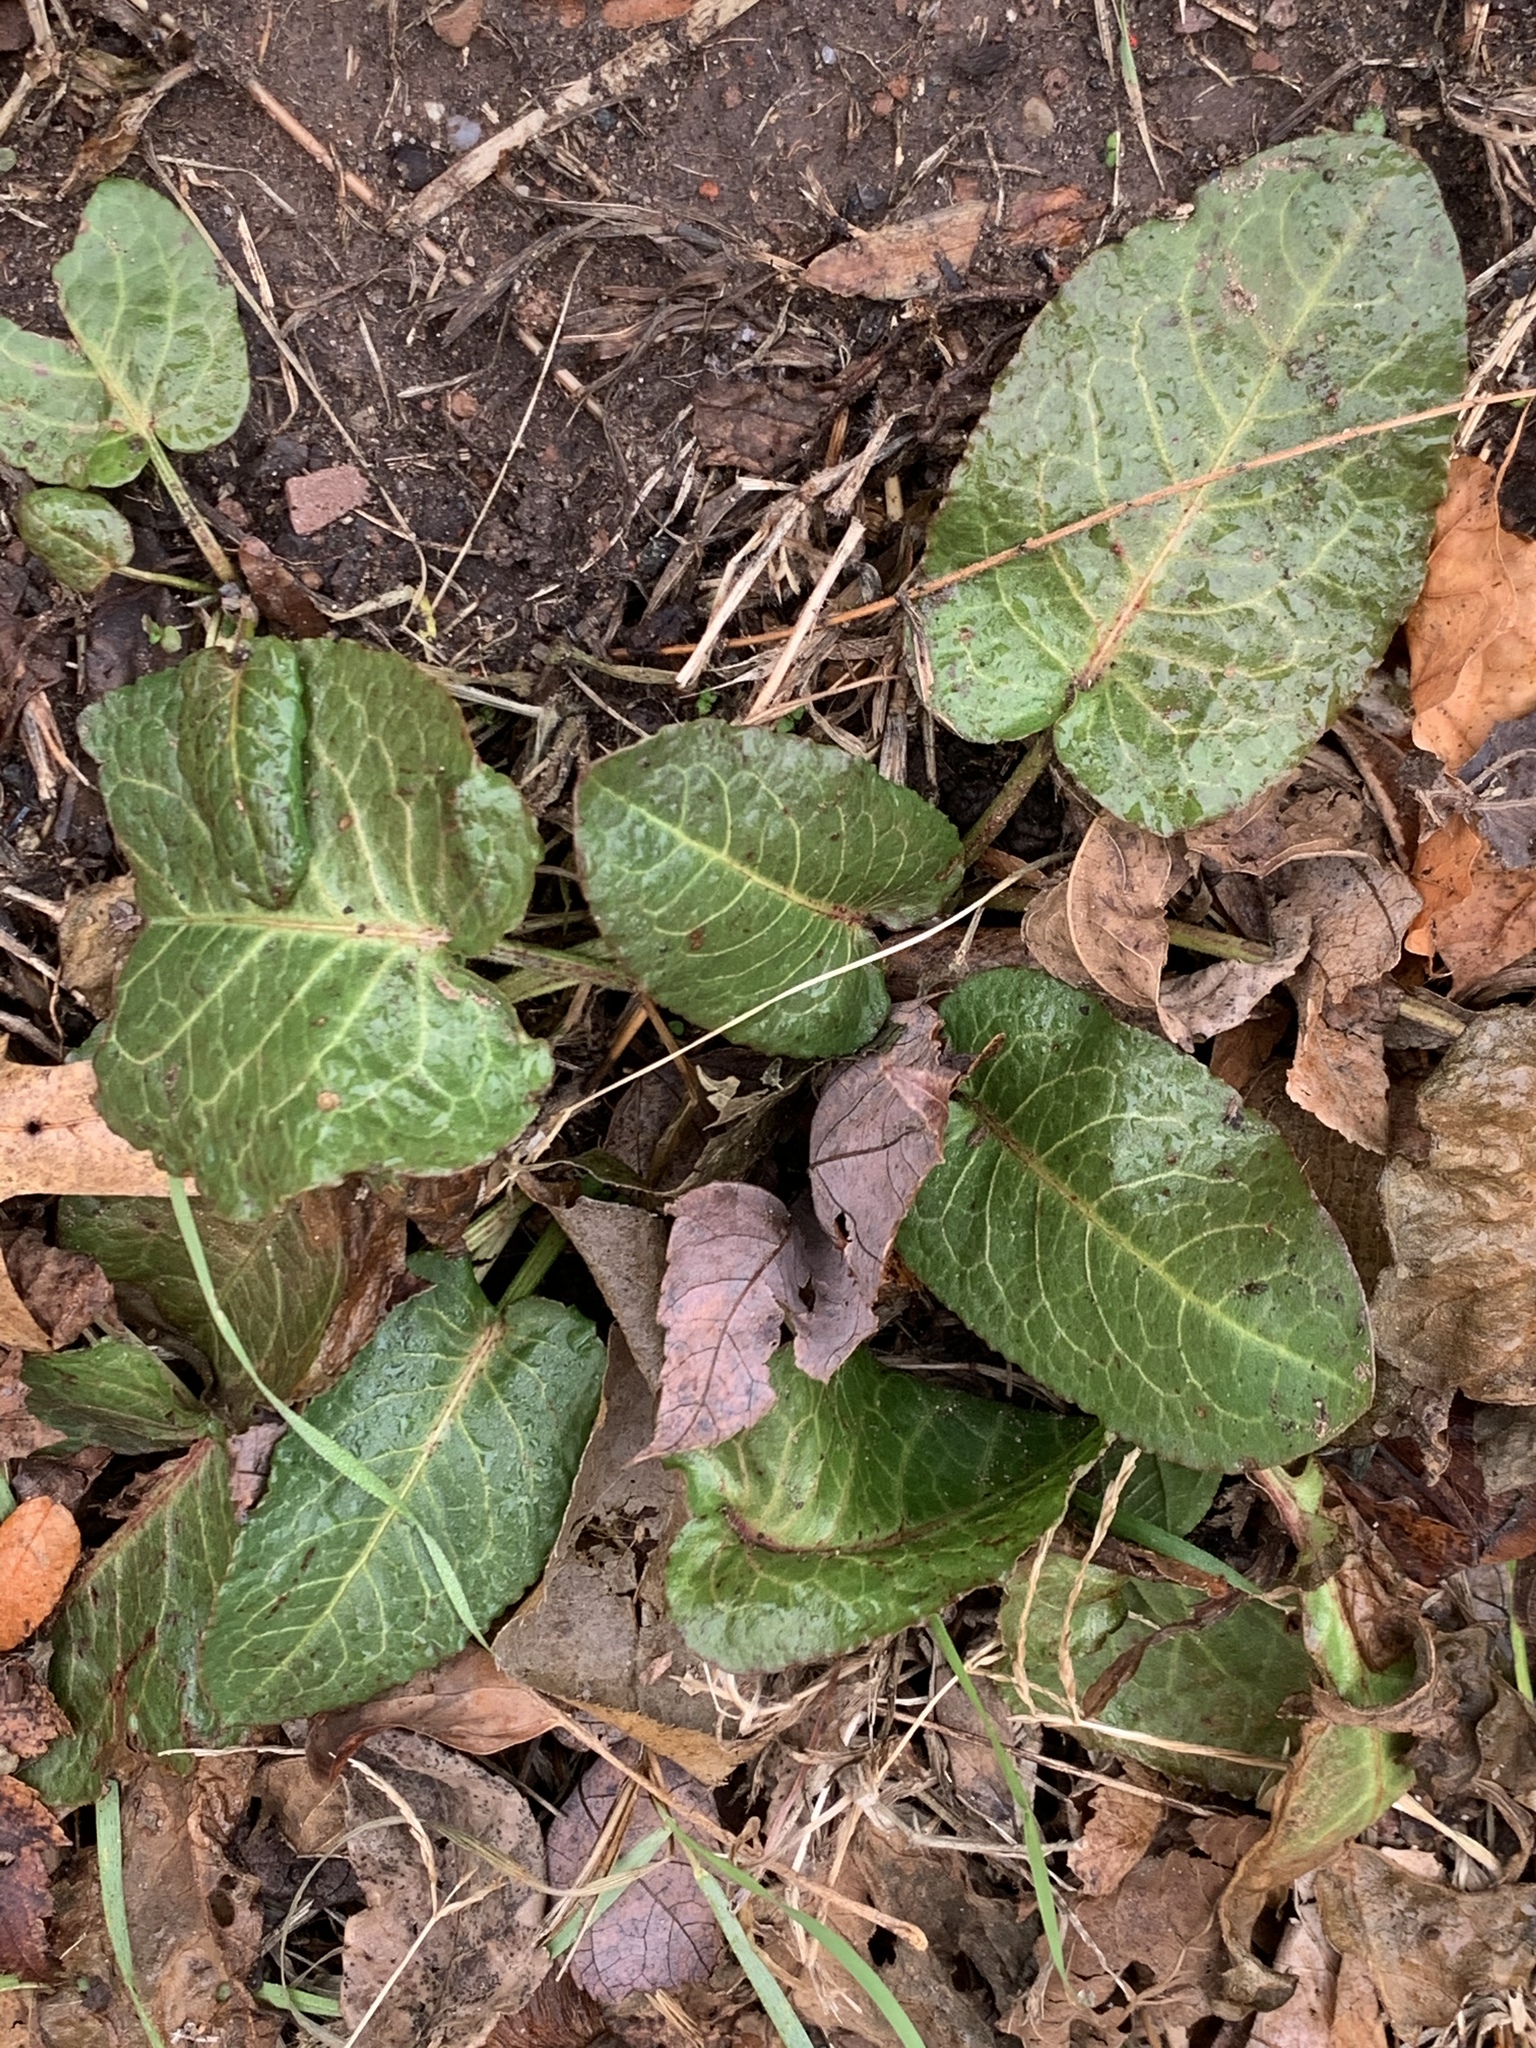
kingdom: Plantae
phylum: Tracheophyta
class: Magnoliopsida
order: Caryophyllales
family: Polygonaceae
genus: Rumex
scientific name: Rumex obtusifolius
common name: Bitter dock
